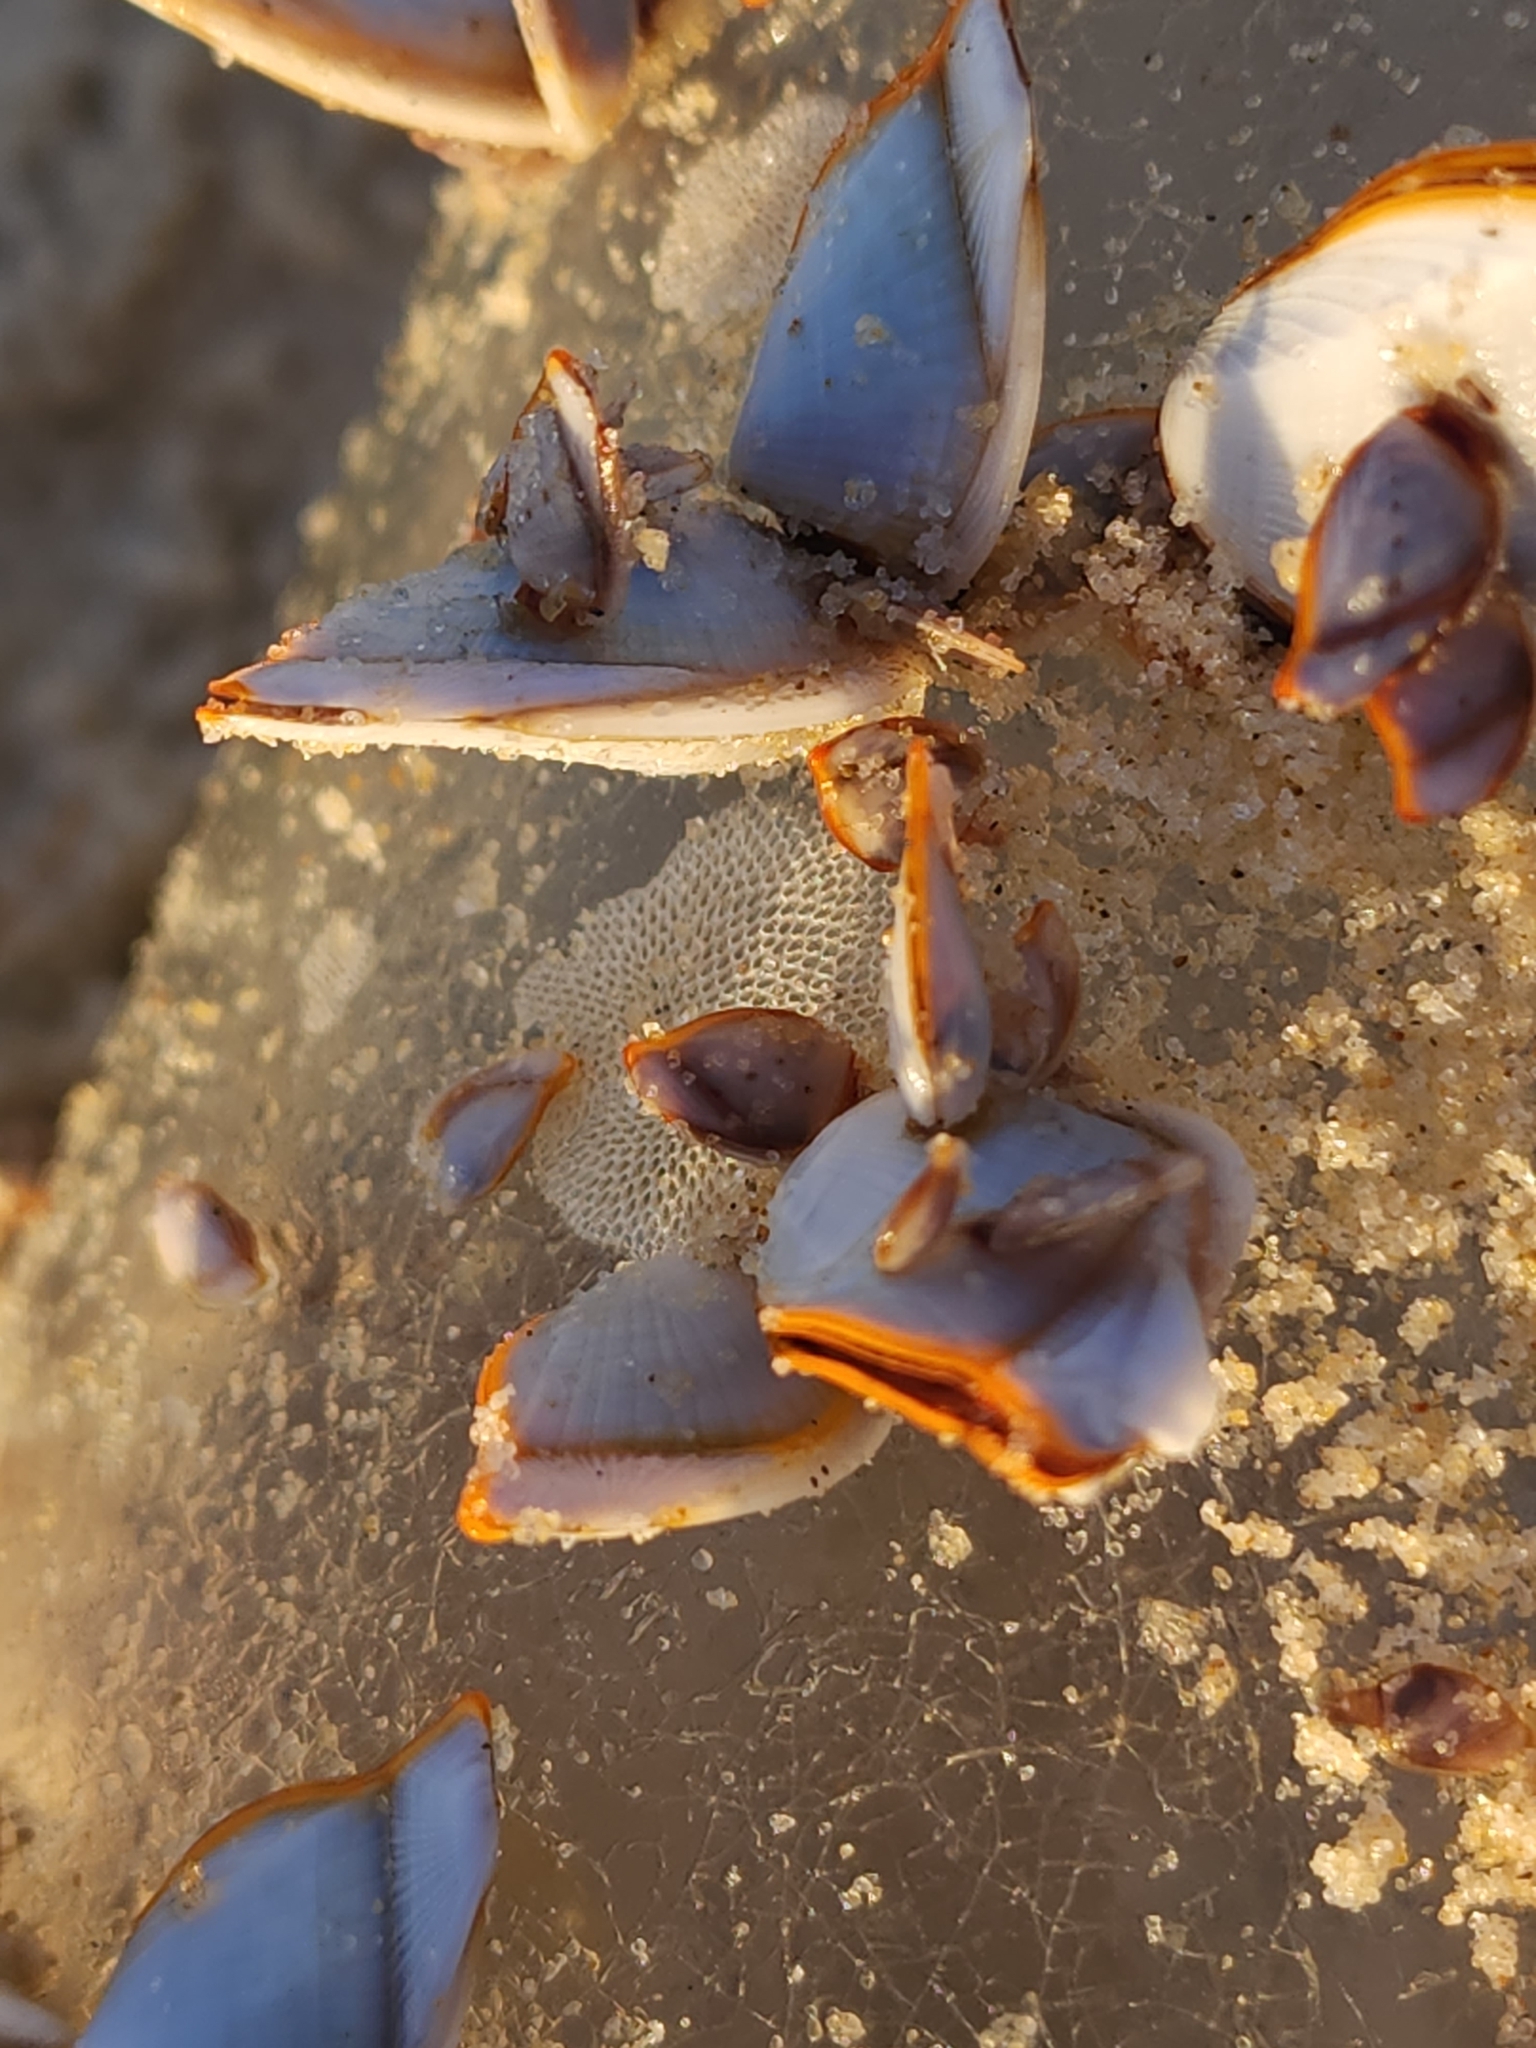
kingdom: Animalia
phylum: Arthropoda
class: Maxillopoda
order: Pedunculata
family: Lepadidae
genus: Lepas
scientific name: Lepas anserifera
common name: Goose barnacle
